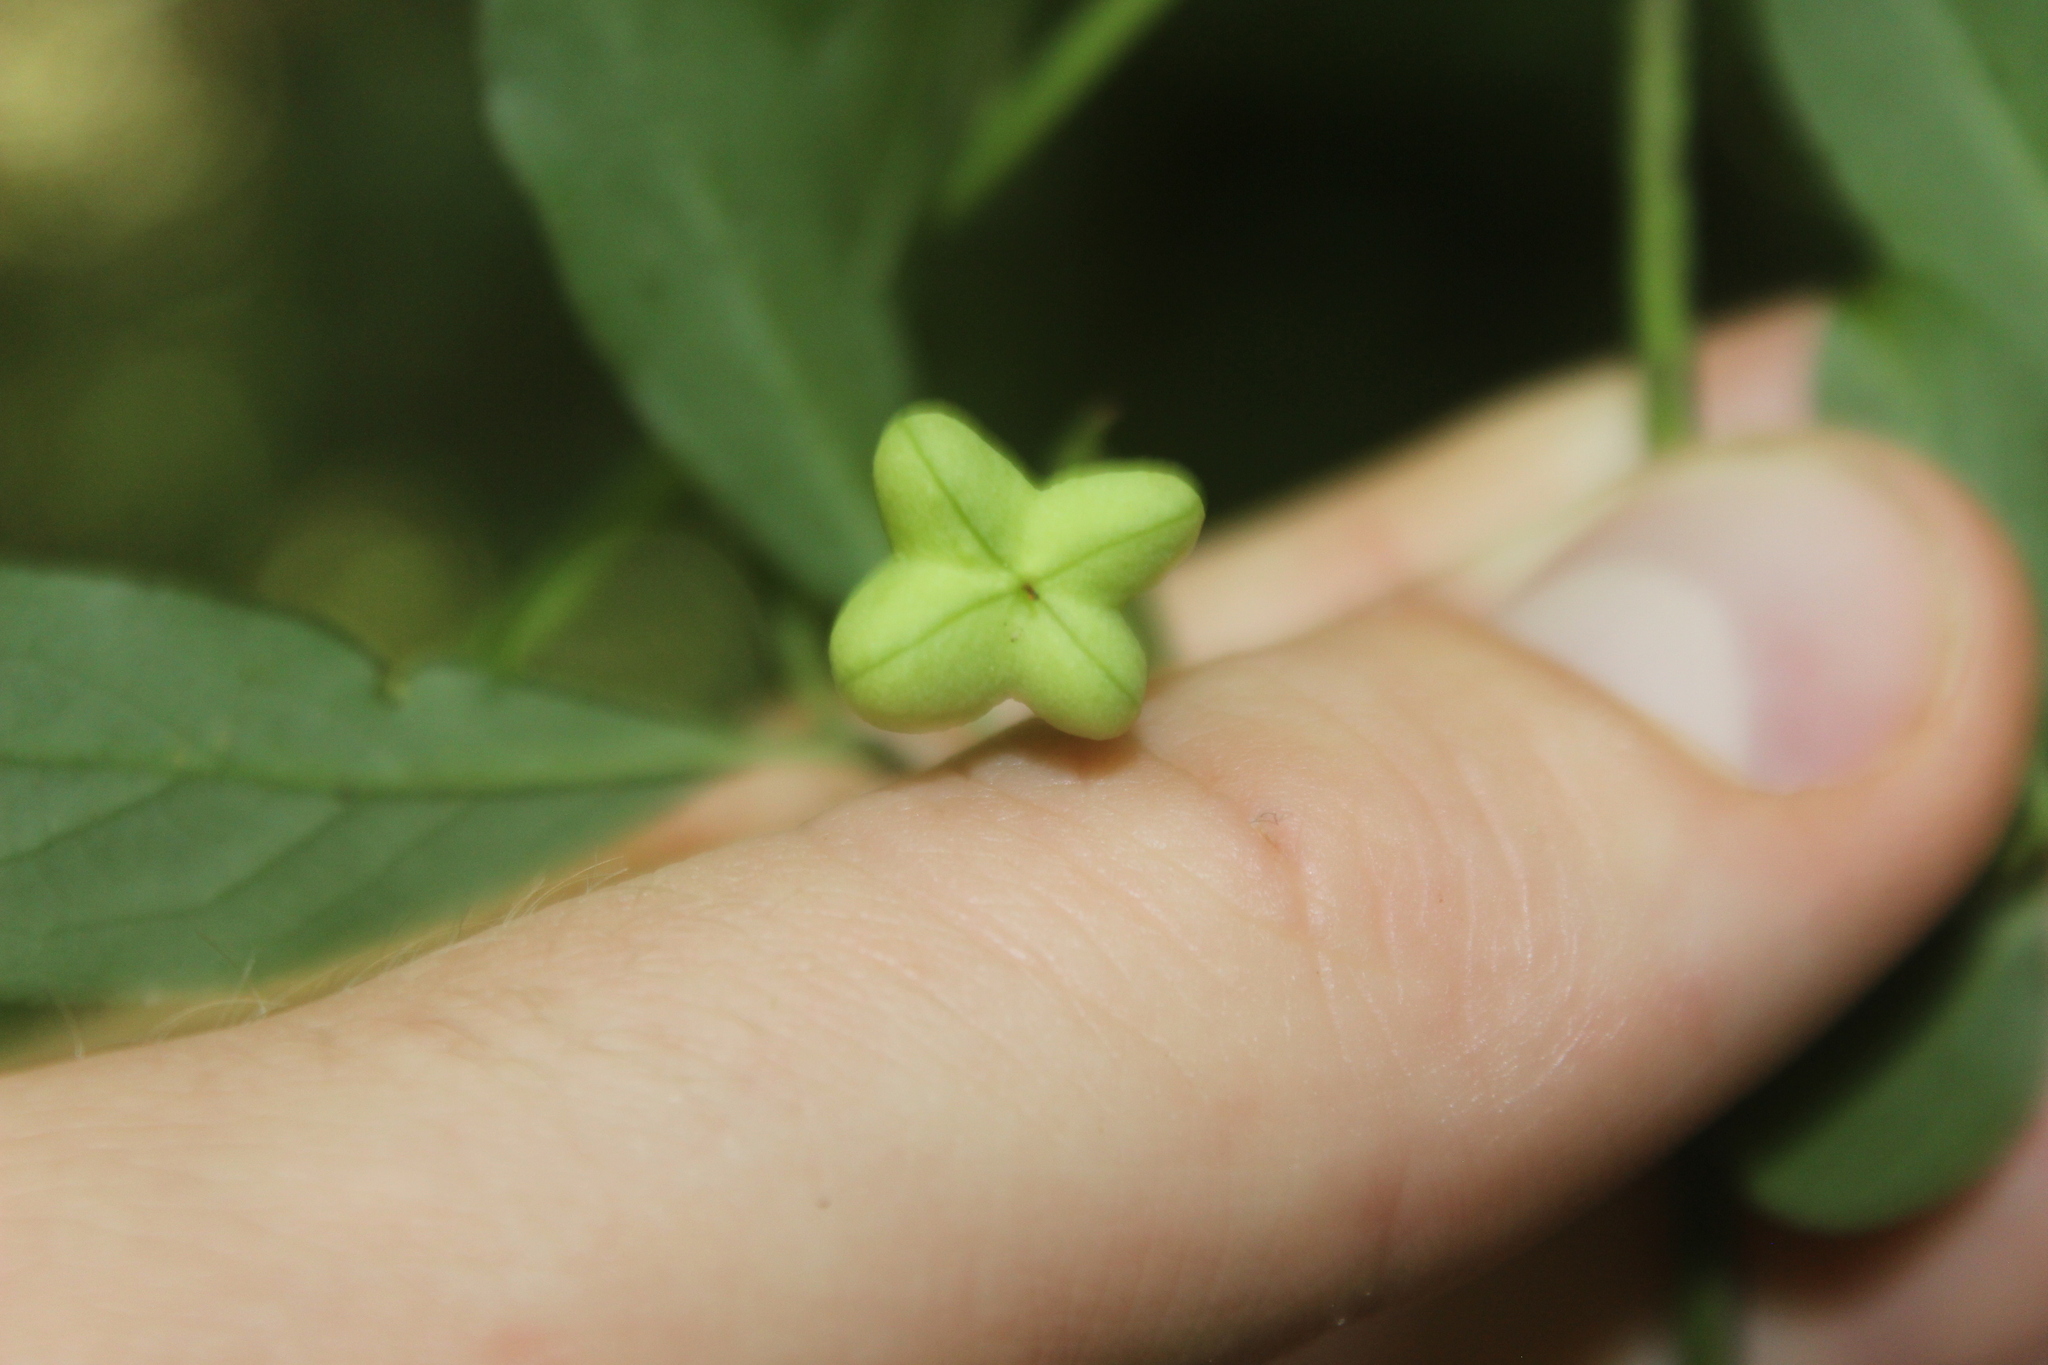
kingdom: Plantae
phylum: Tracheophyta
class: Magnoliopsida
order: Celastrales
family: Celastraceae
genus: Euonymus
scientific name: Euonymus europaeus
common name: Spindle
